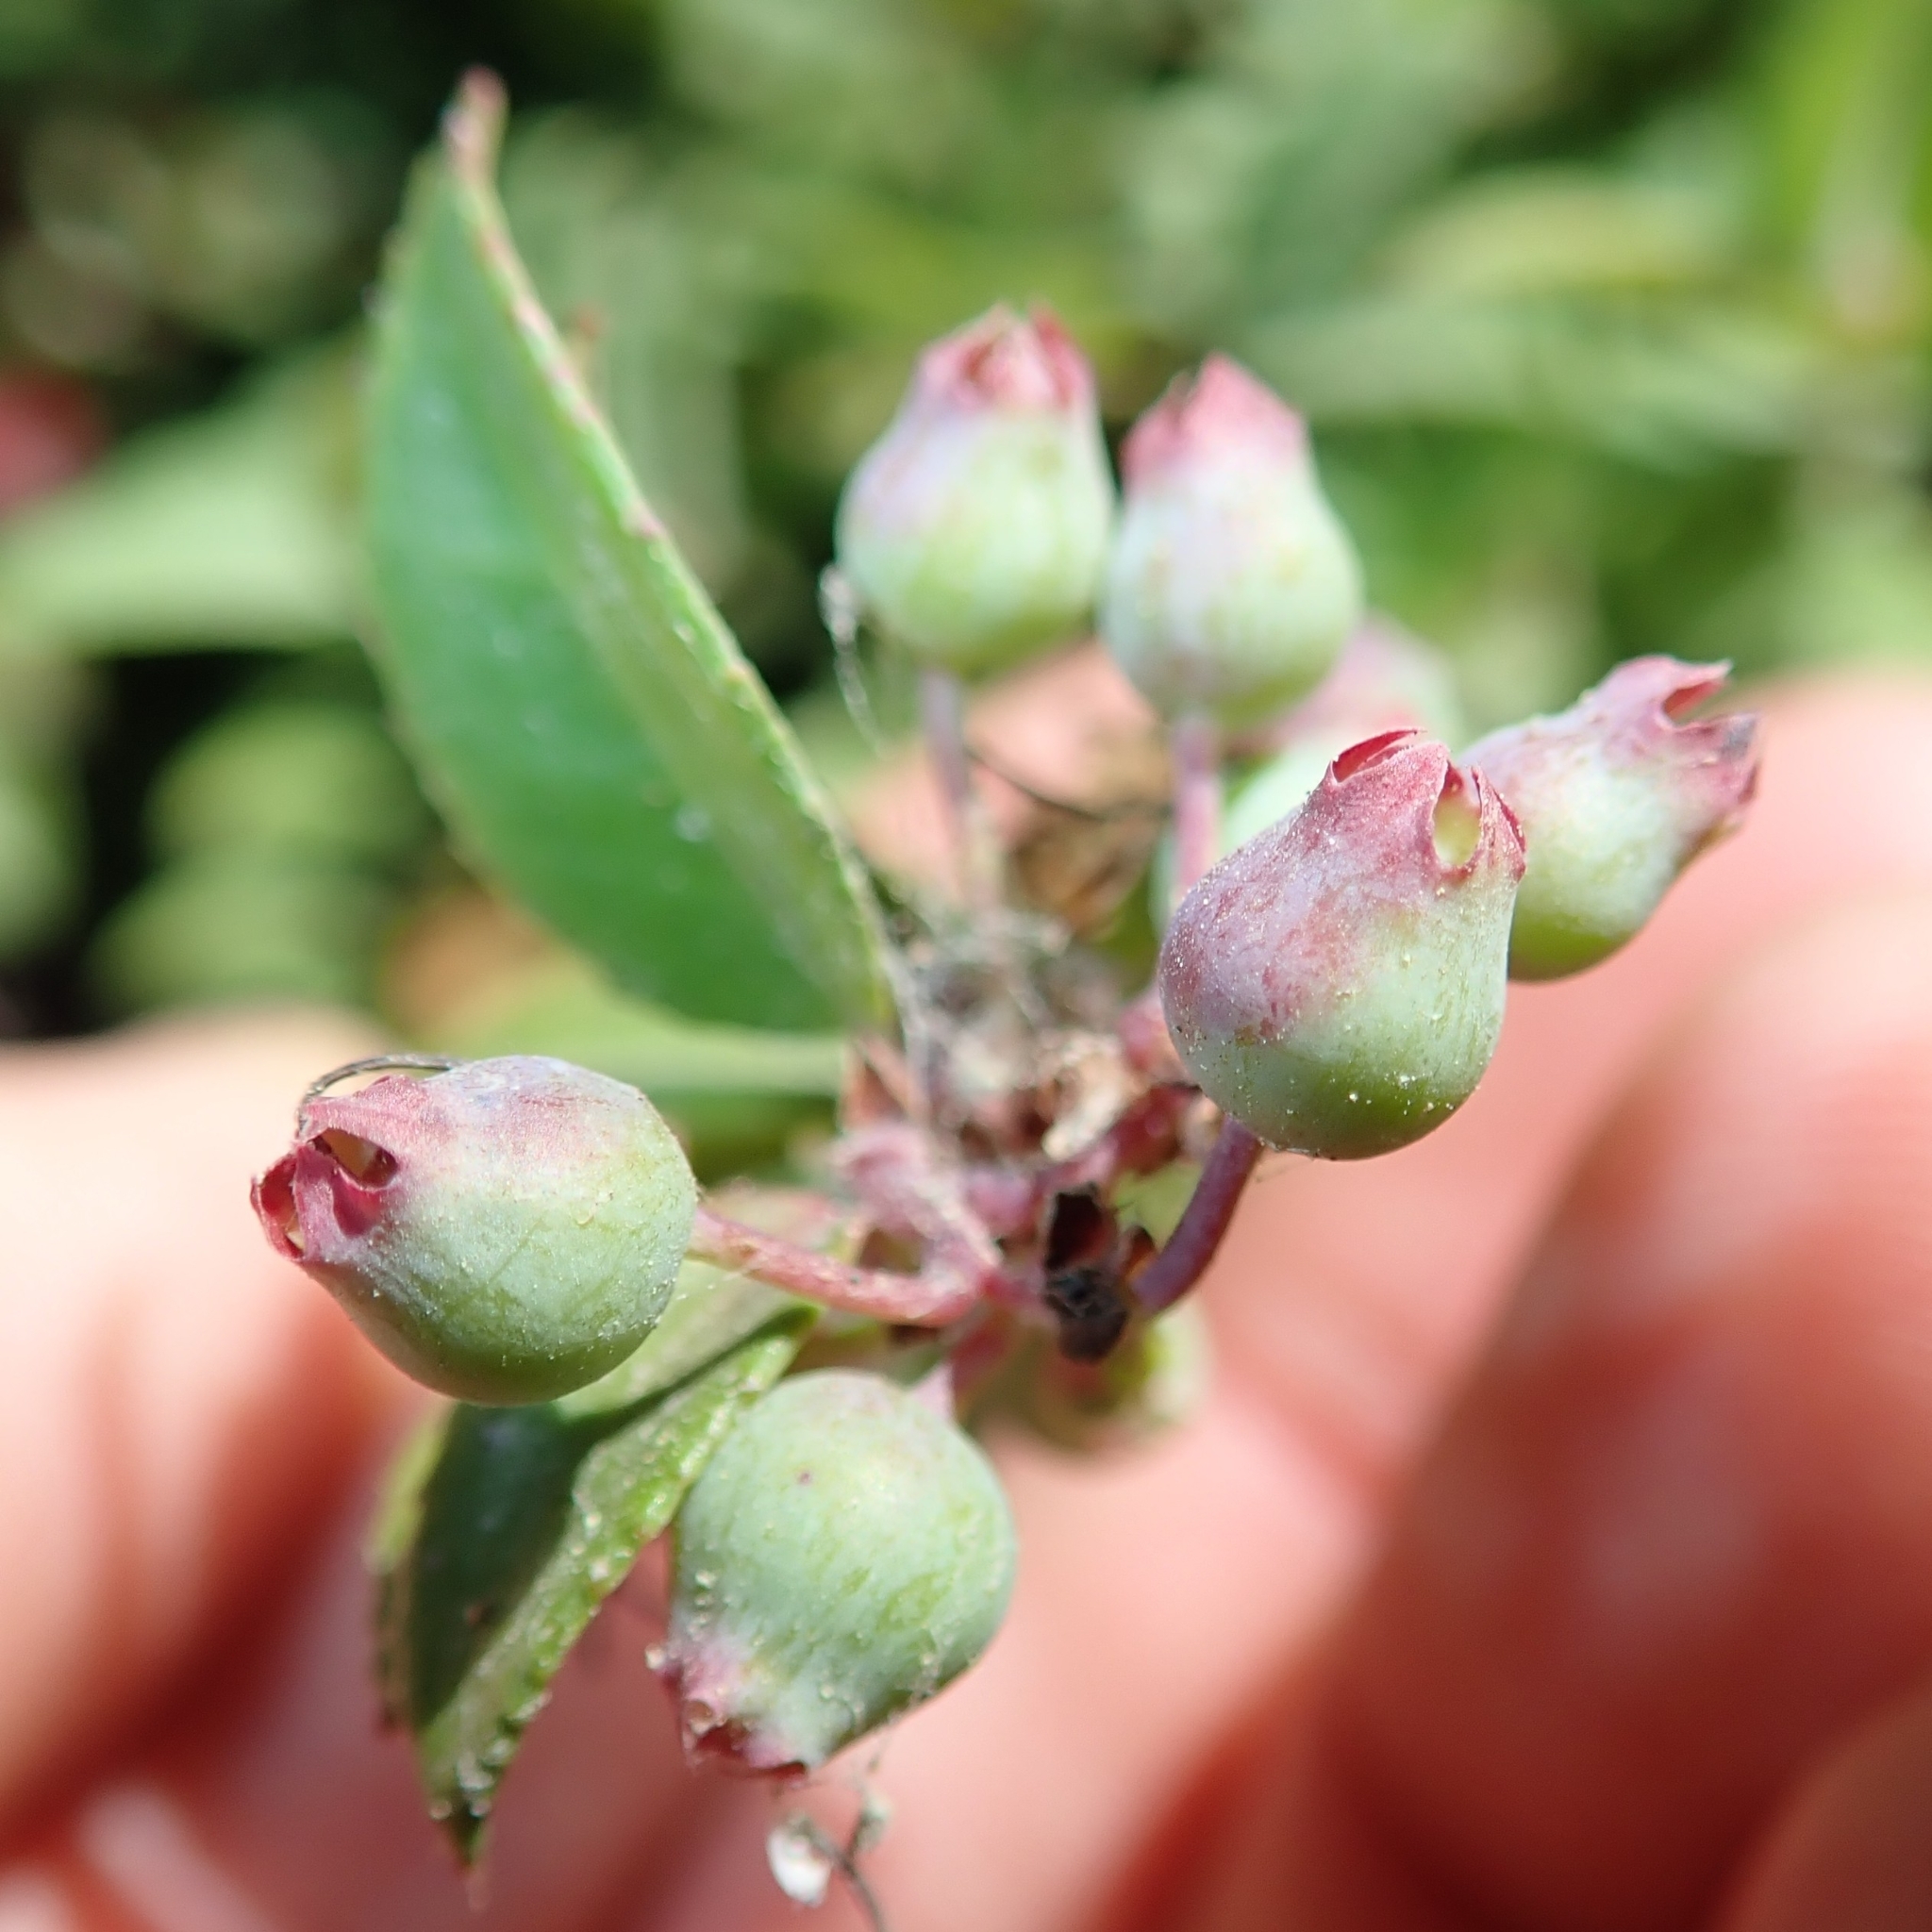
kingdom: Plantae
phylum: Tracheophyta
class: Magnoliopsida
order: Ericales
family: Ericaceae
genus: Vaccinium
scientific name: Vaccinium ovatum
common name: California-huckleberry
